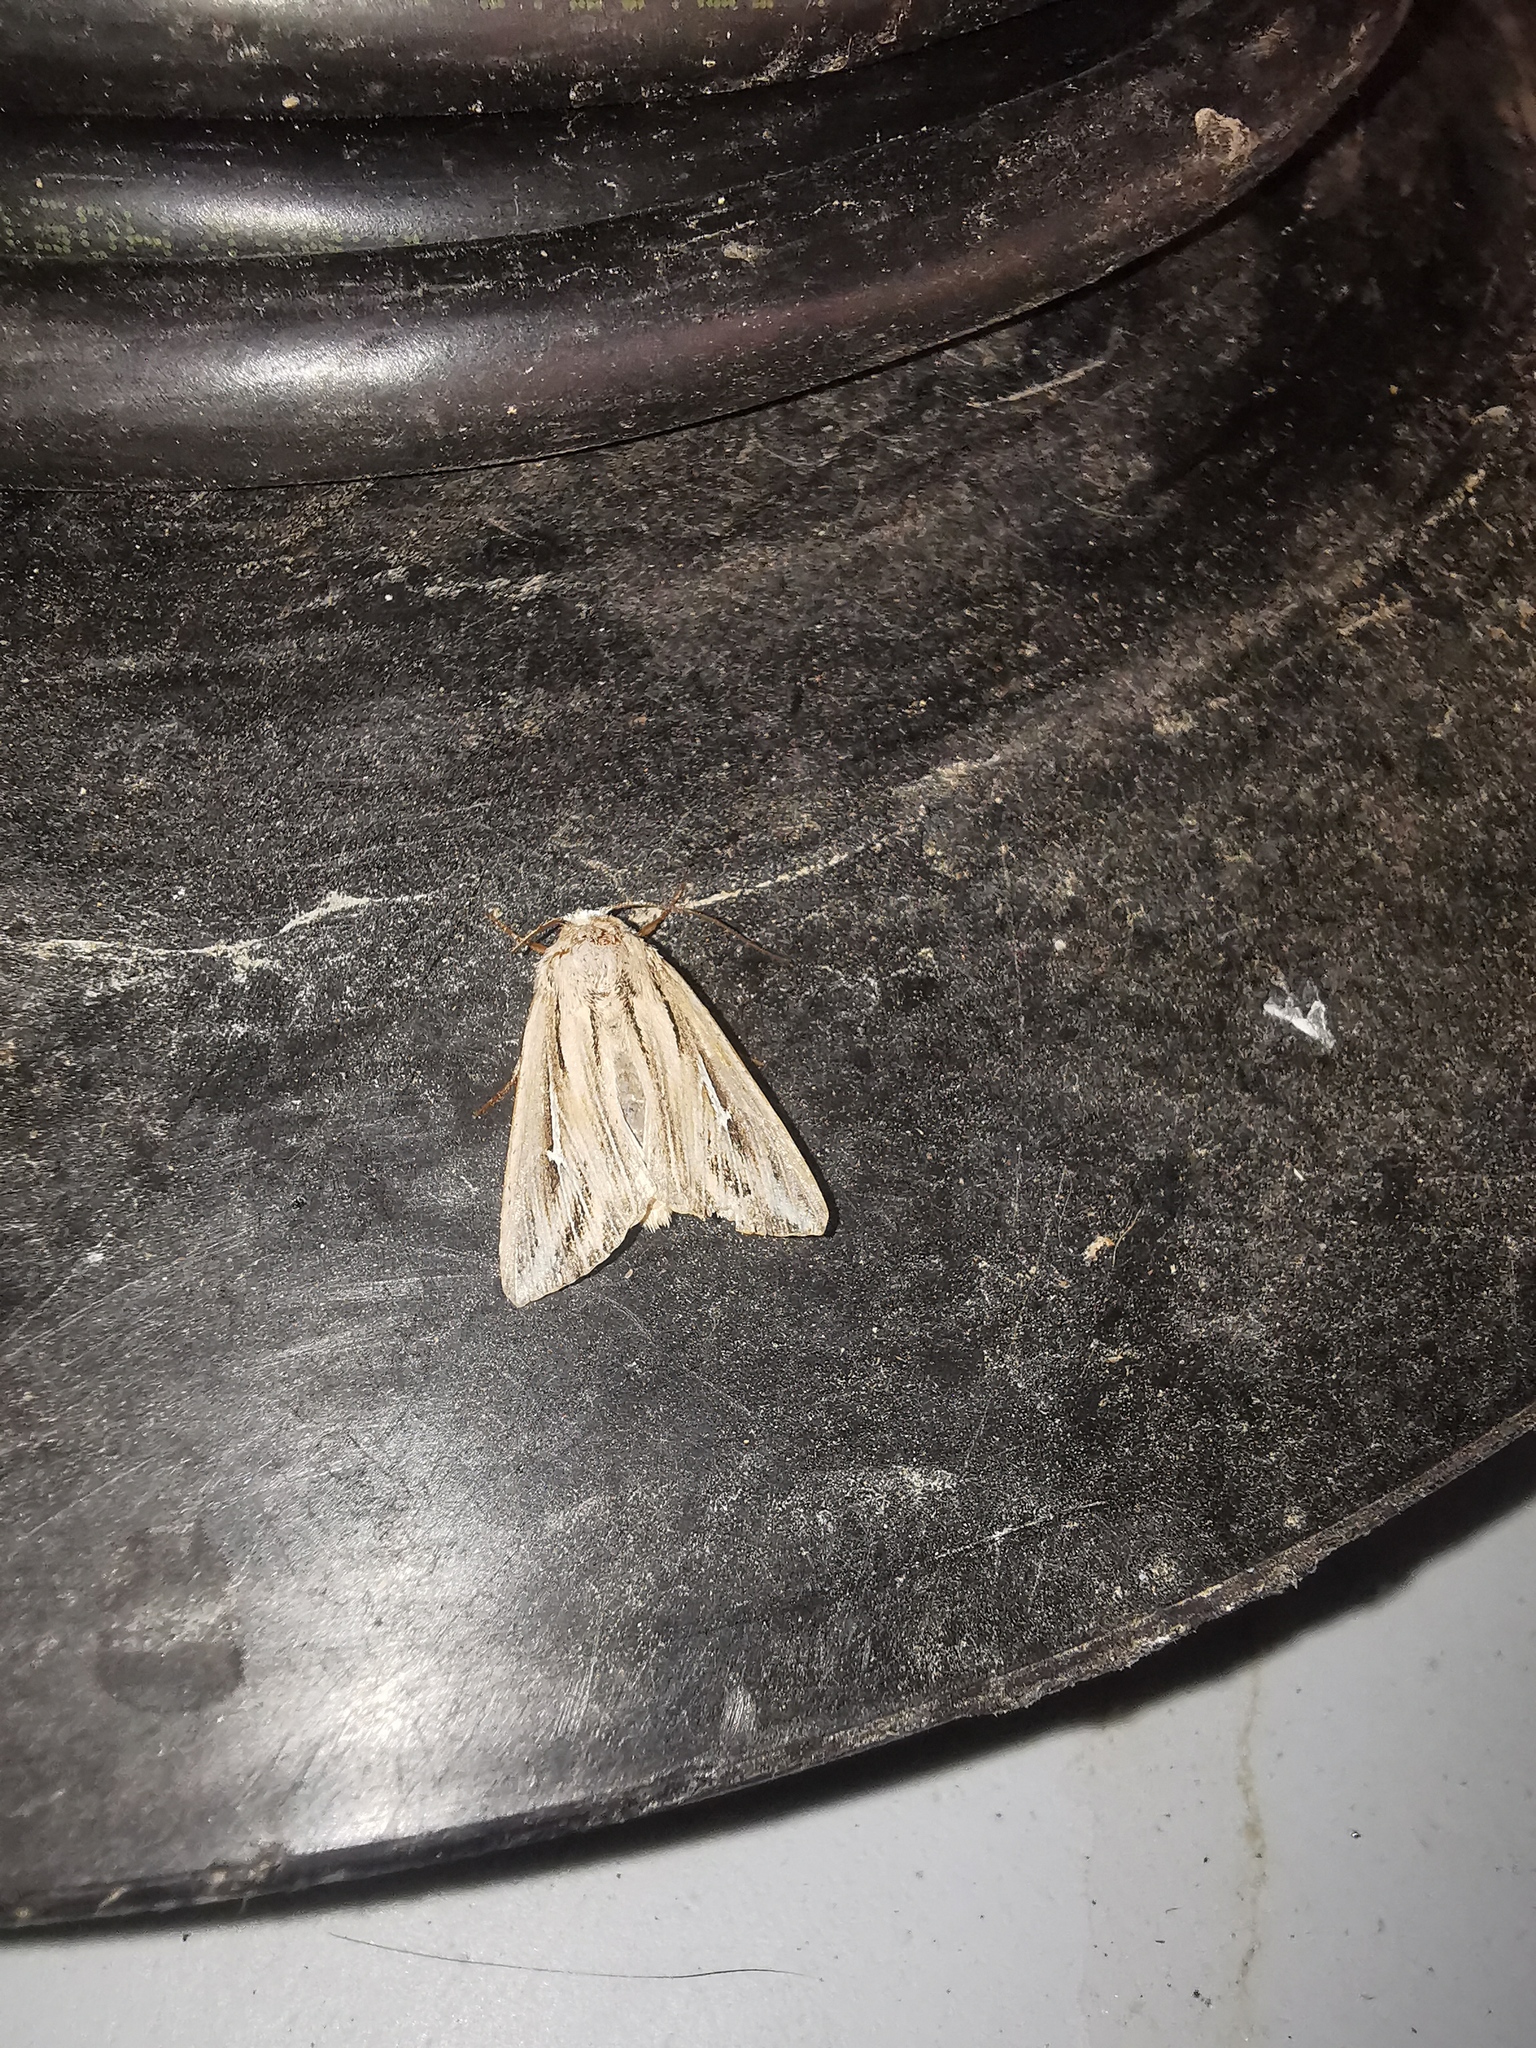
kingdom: Animalia
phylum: Arthropoda
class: Insecta
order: Lepidoptera
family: Noctuidae
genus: Mythimna
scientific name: Mythimna l-album
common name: L-album wainscot
